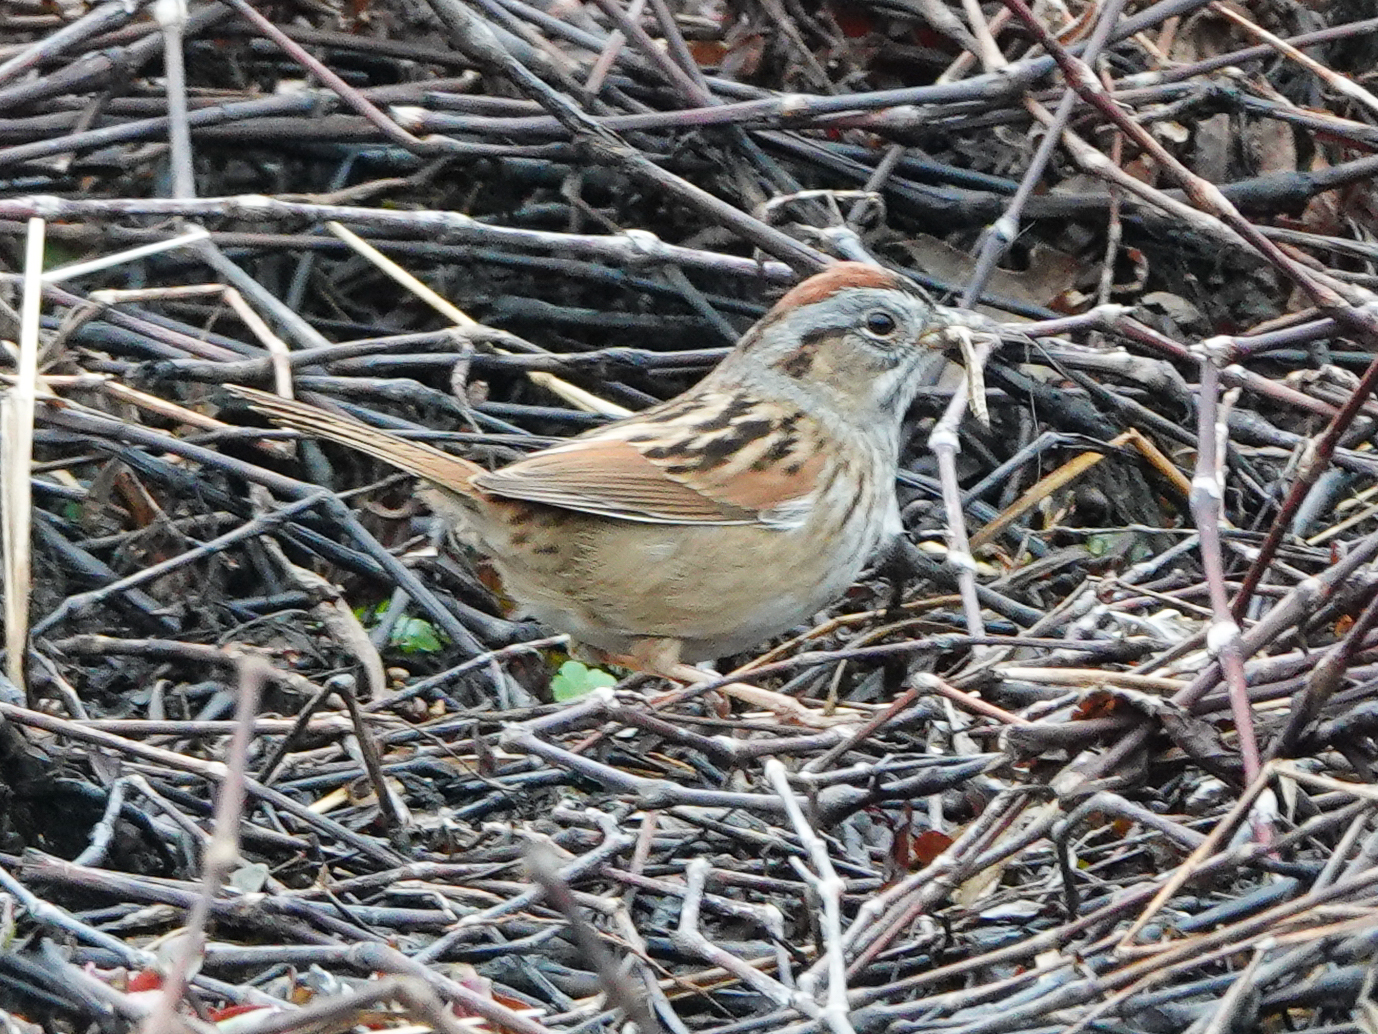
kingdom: Animalia
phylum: Chordata
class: Aves
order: Passeriformes
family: Passerellidae
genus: Melospiza
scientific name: Melospiza georgiana
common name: Swamp sparrow
